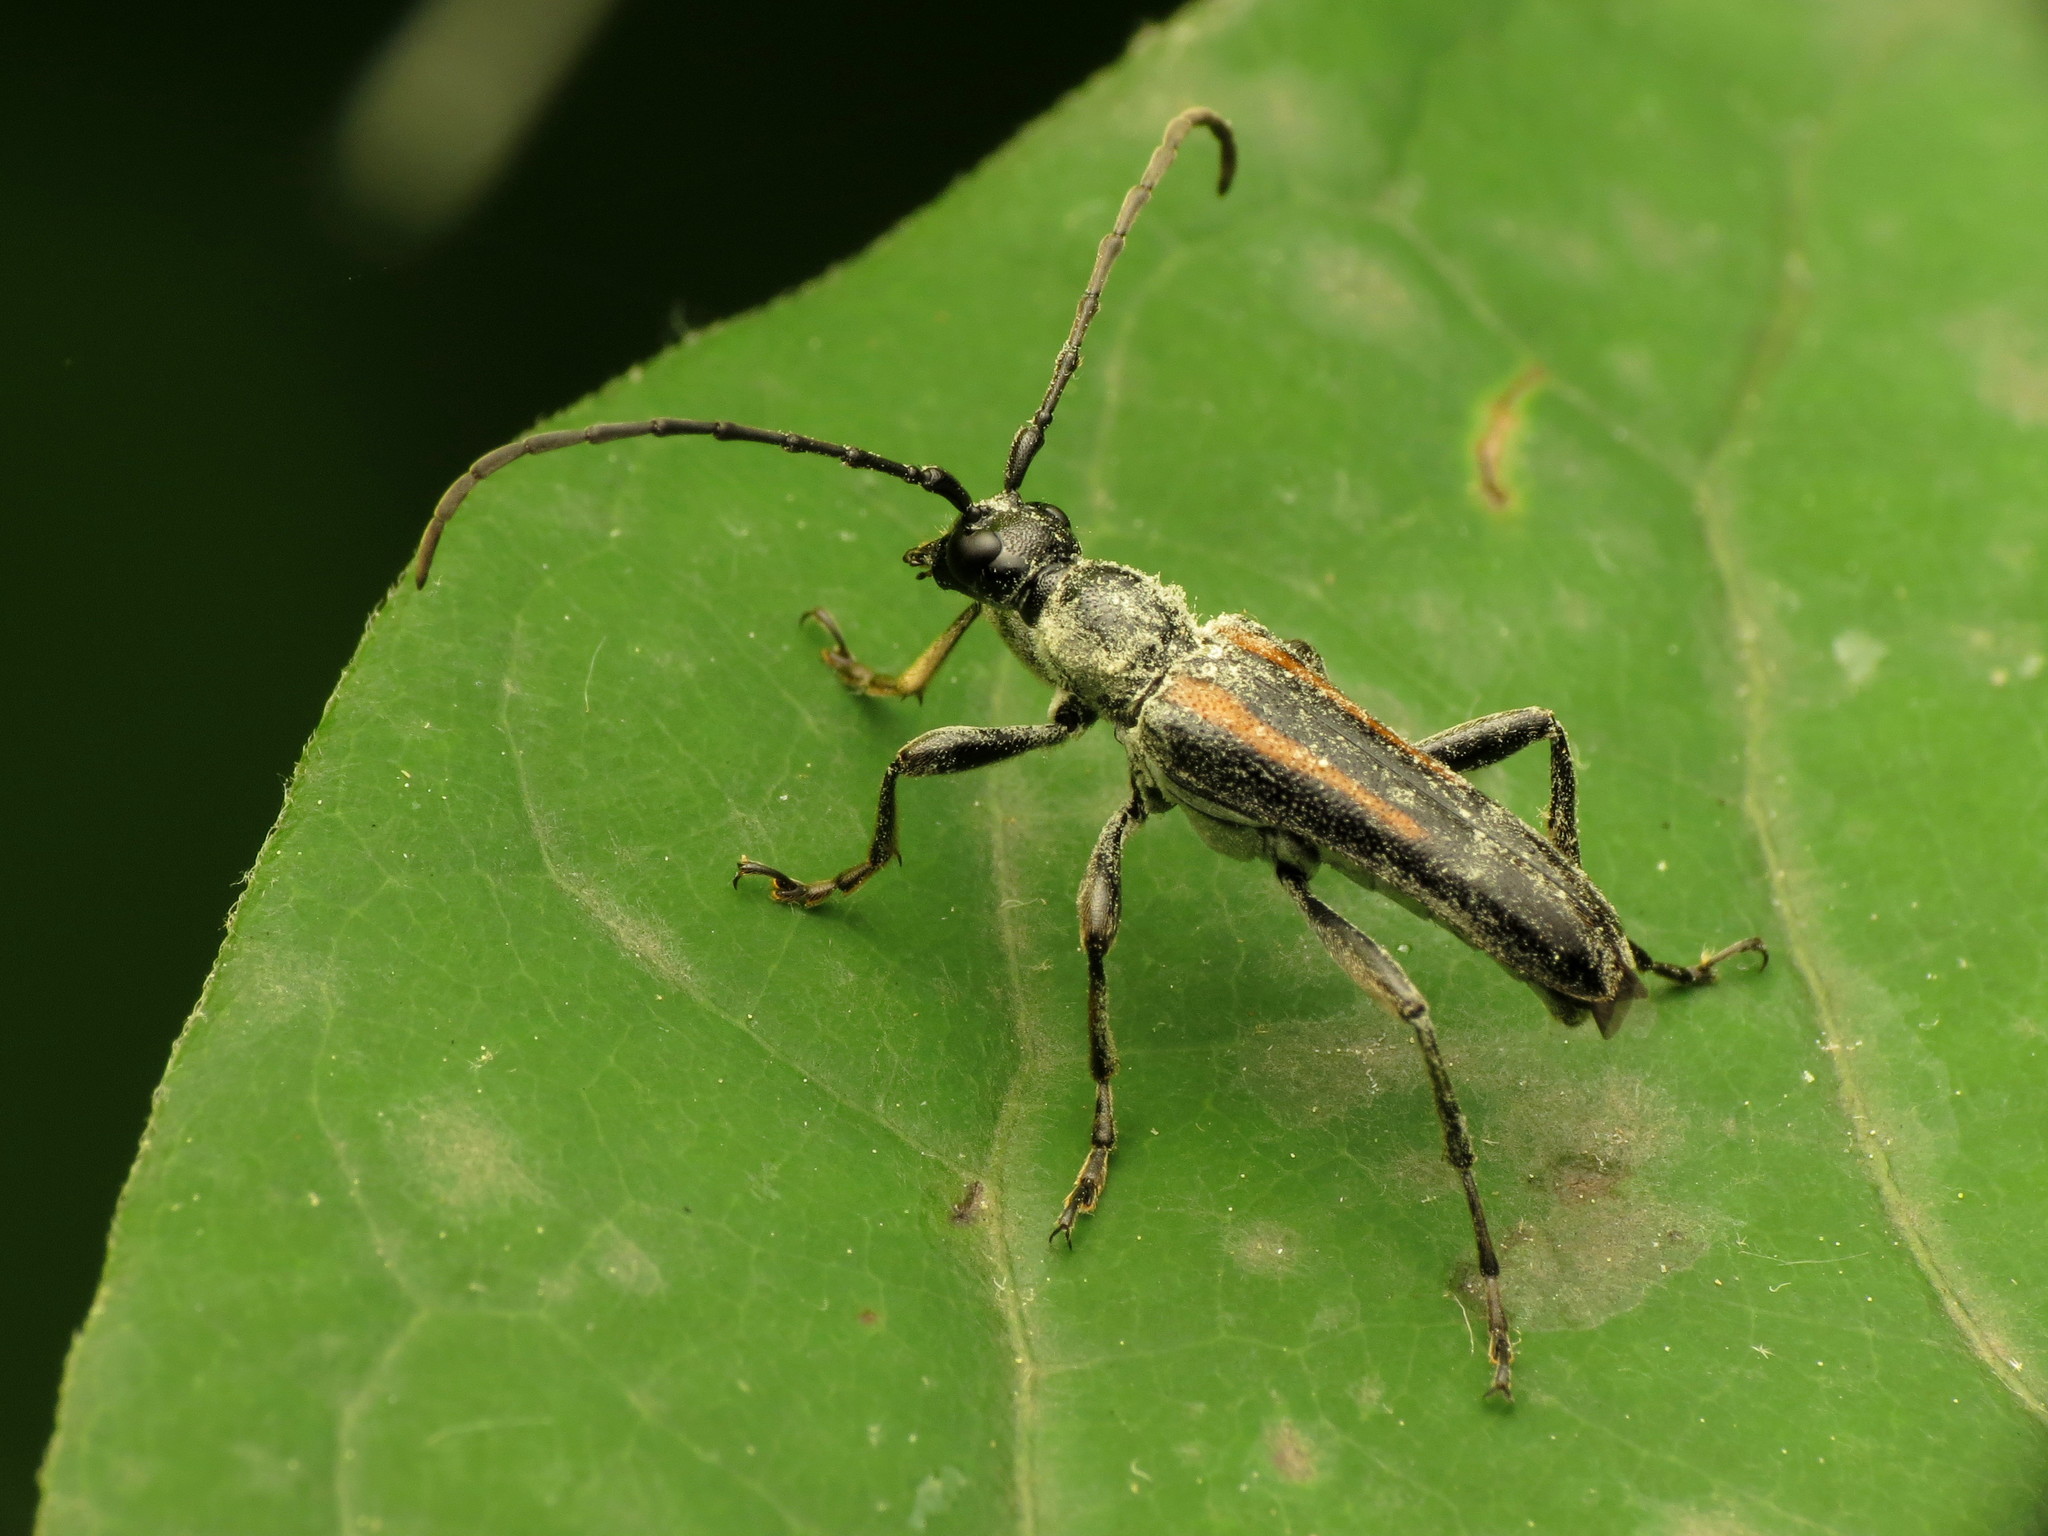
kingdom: Animalia
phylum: Arthropoda
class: Insecta
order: Coleoptera
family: Cerambycidae
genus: Strangalepta
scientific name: Strangalepta abbreviata
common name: Strangalepta flower longhorn beetle
